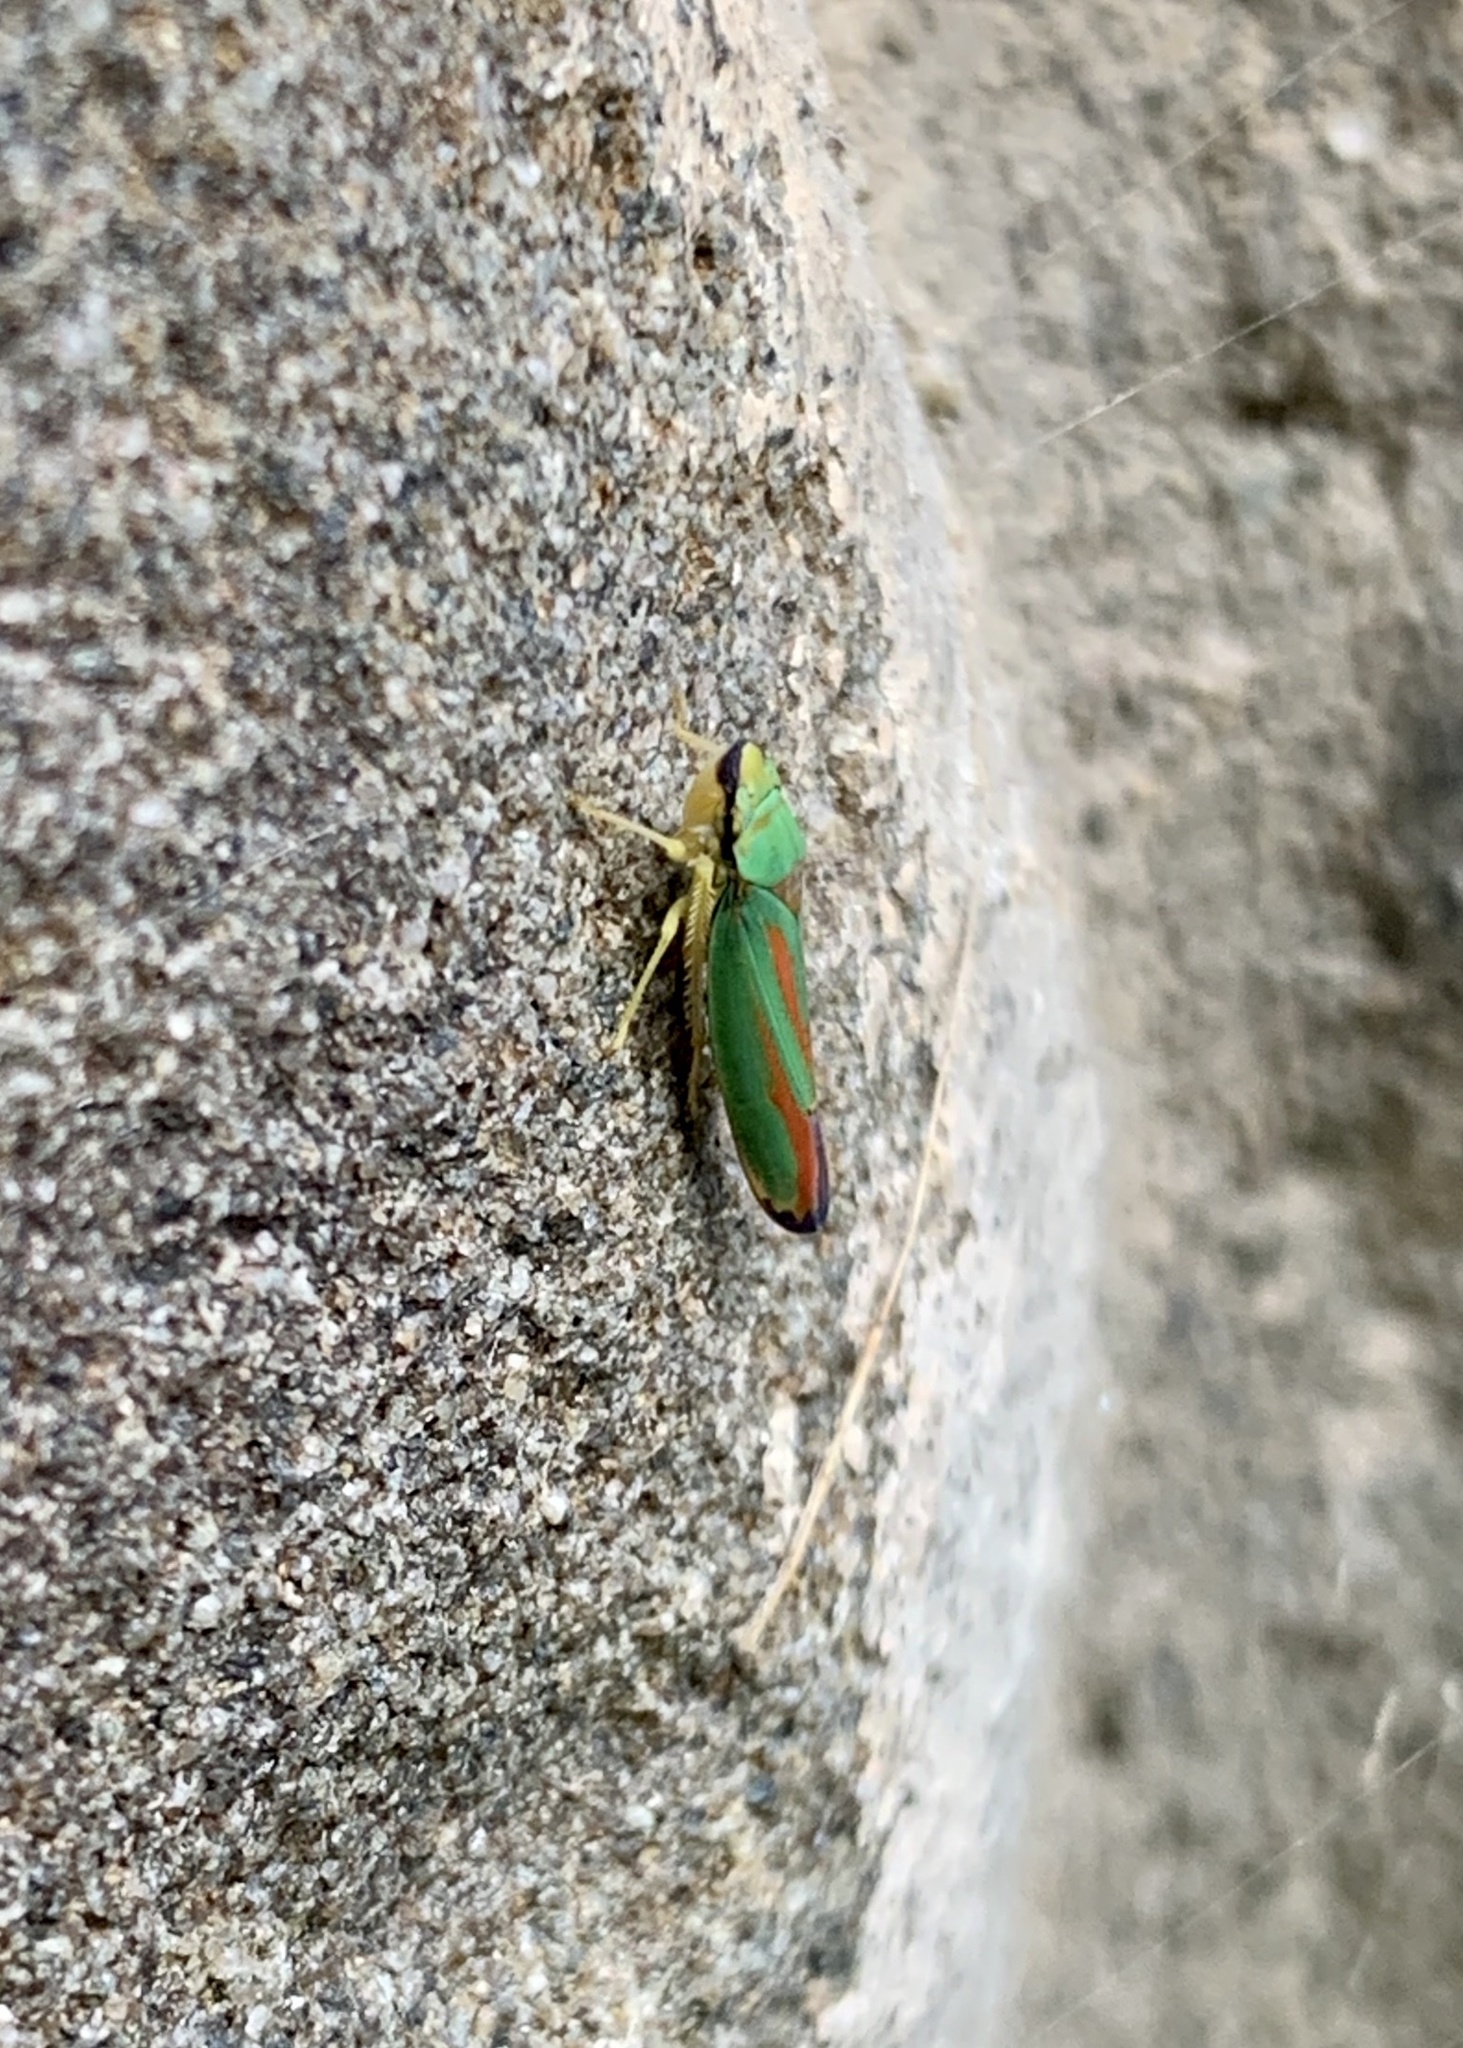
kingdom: Animalia
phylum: Arthropoda
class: Insecta
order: Hemiptera
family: Cicadellidae
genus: Graphocephala
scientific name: Graphocephala fennahi
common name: Rhododendron leafhopper
